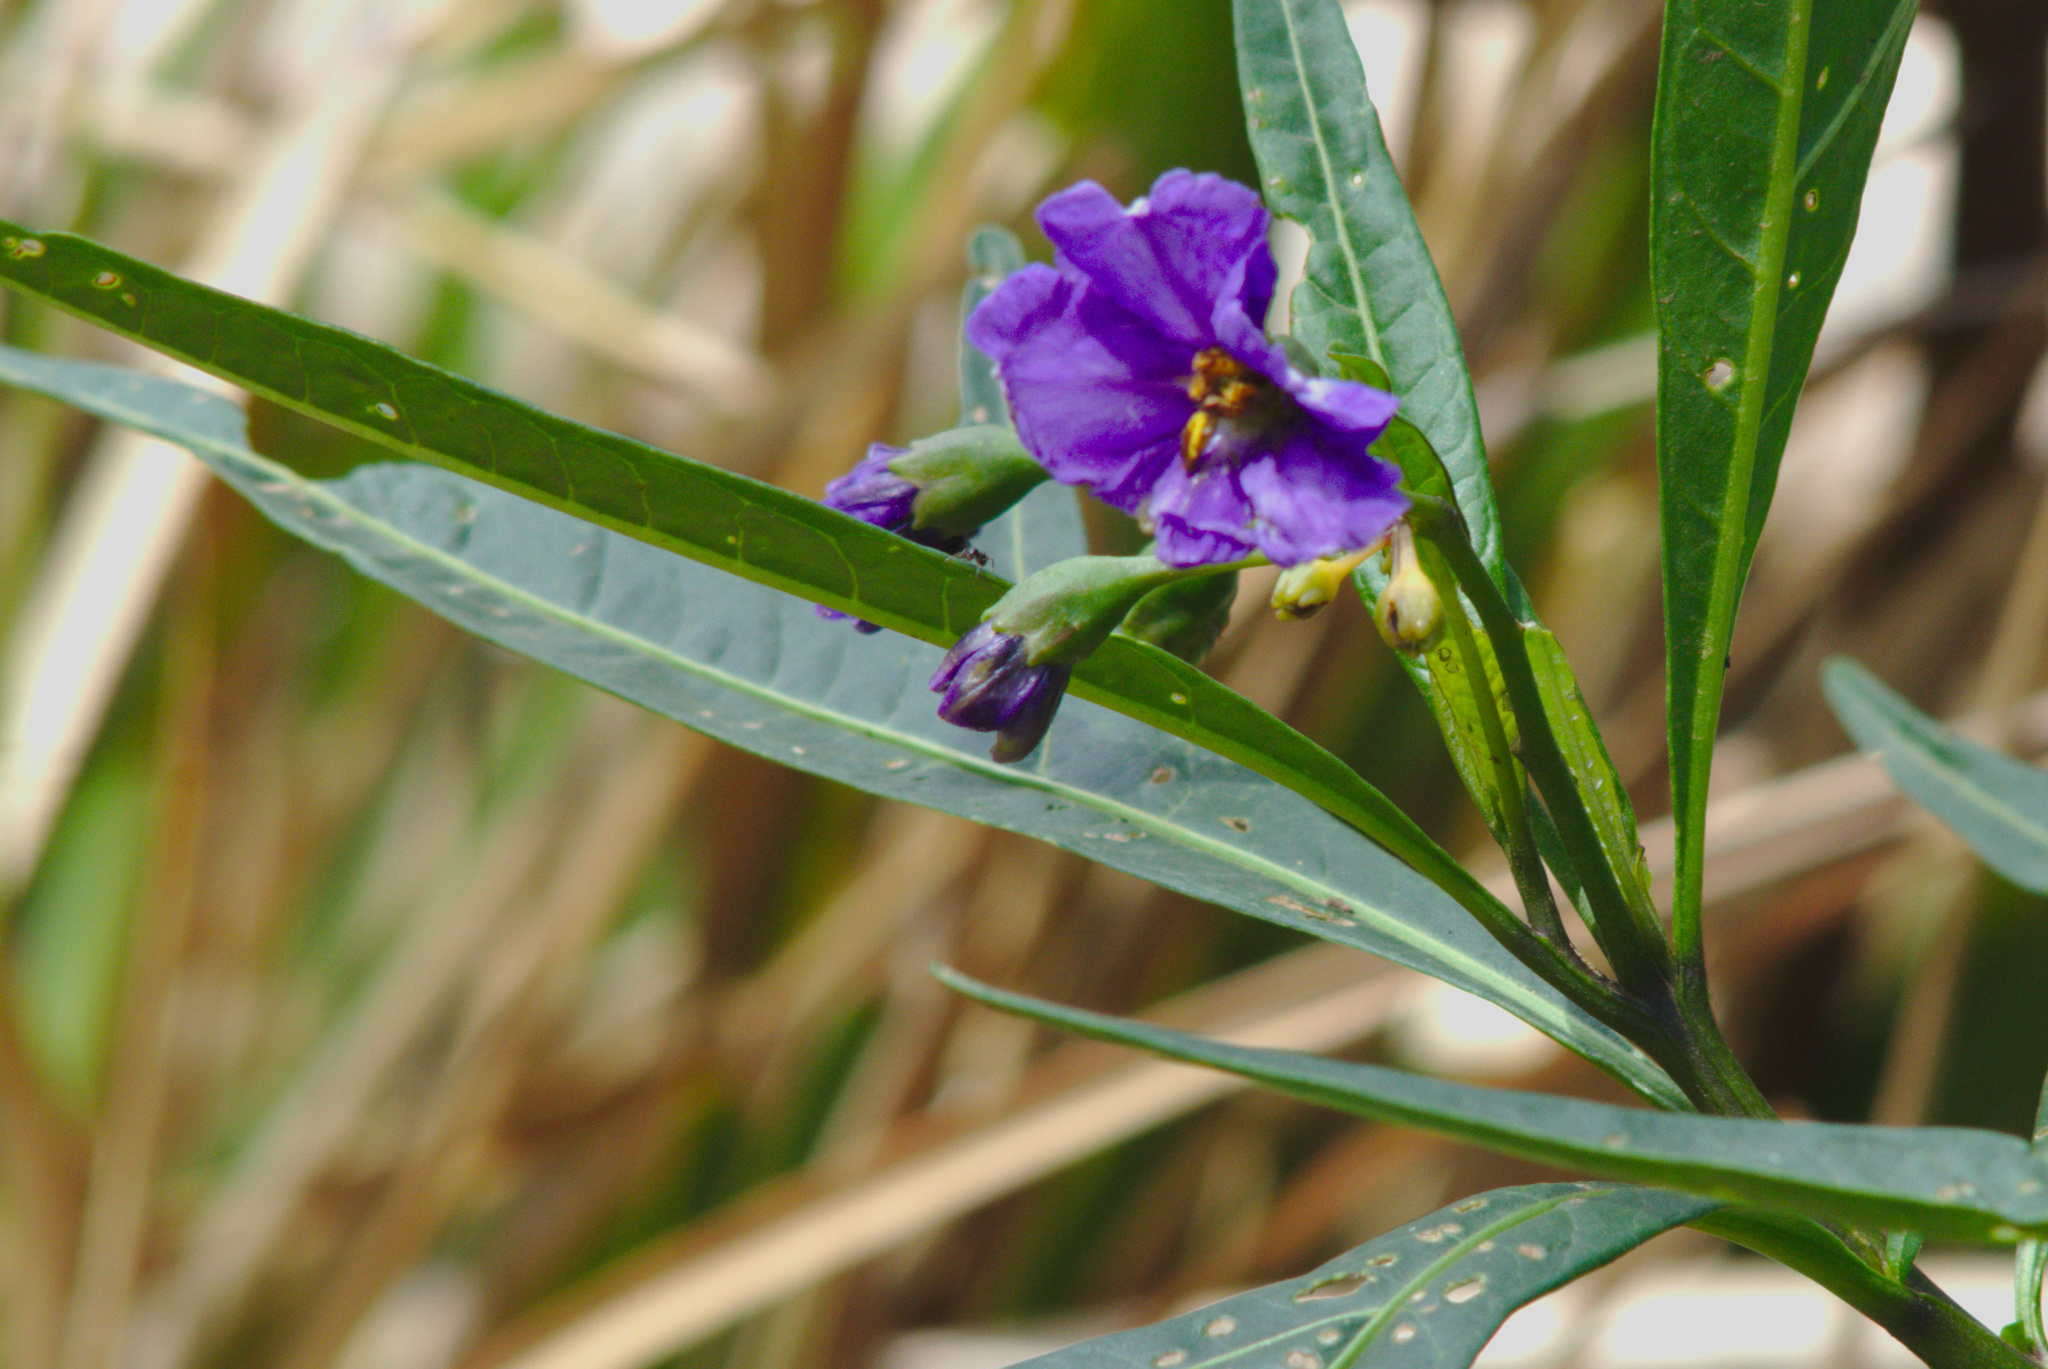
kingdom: Plantae
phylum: Tracheophyta
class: Magnoliopsida
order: Solanales
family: Solanaceae
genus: Solanum
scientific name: Solanum laciniatum
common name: Kangaroo-apple
